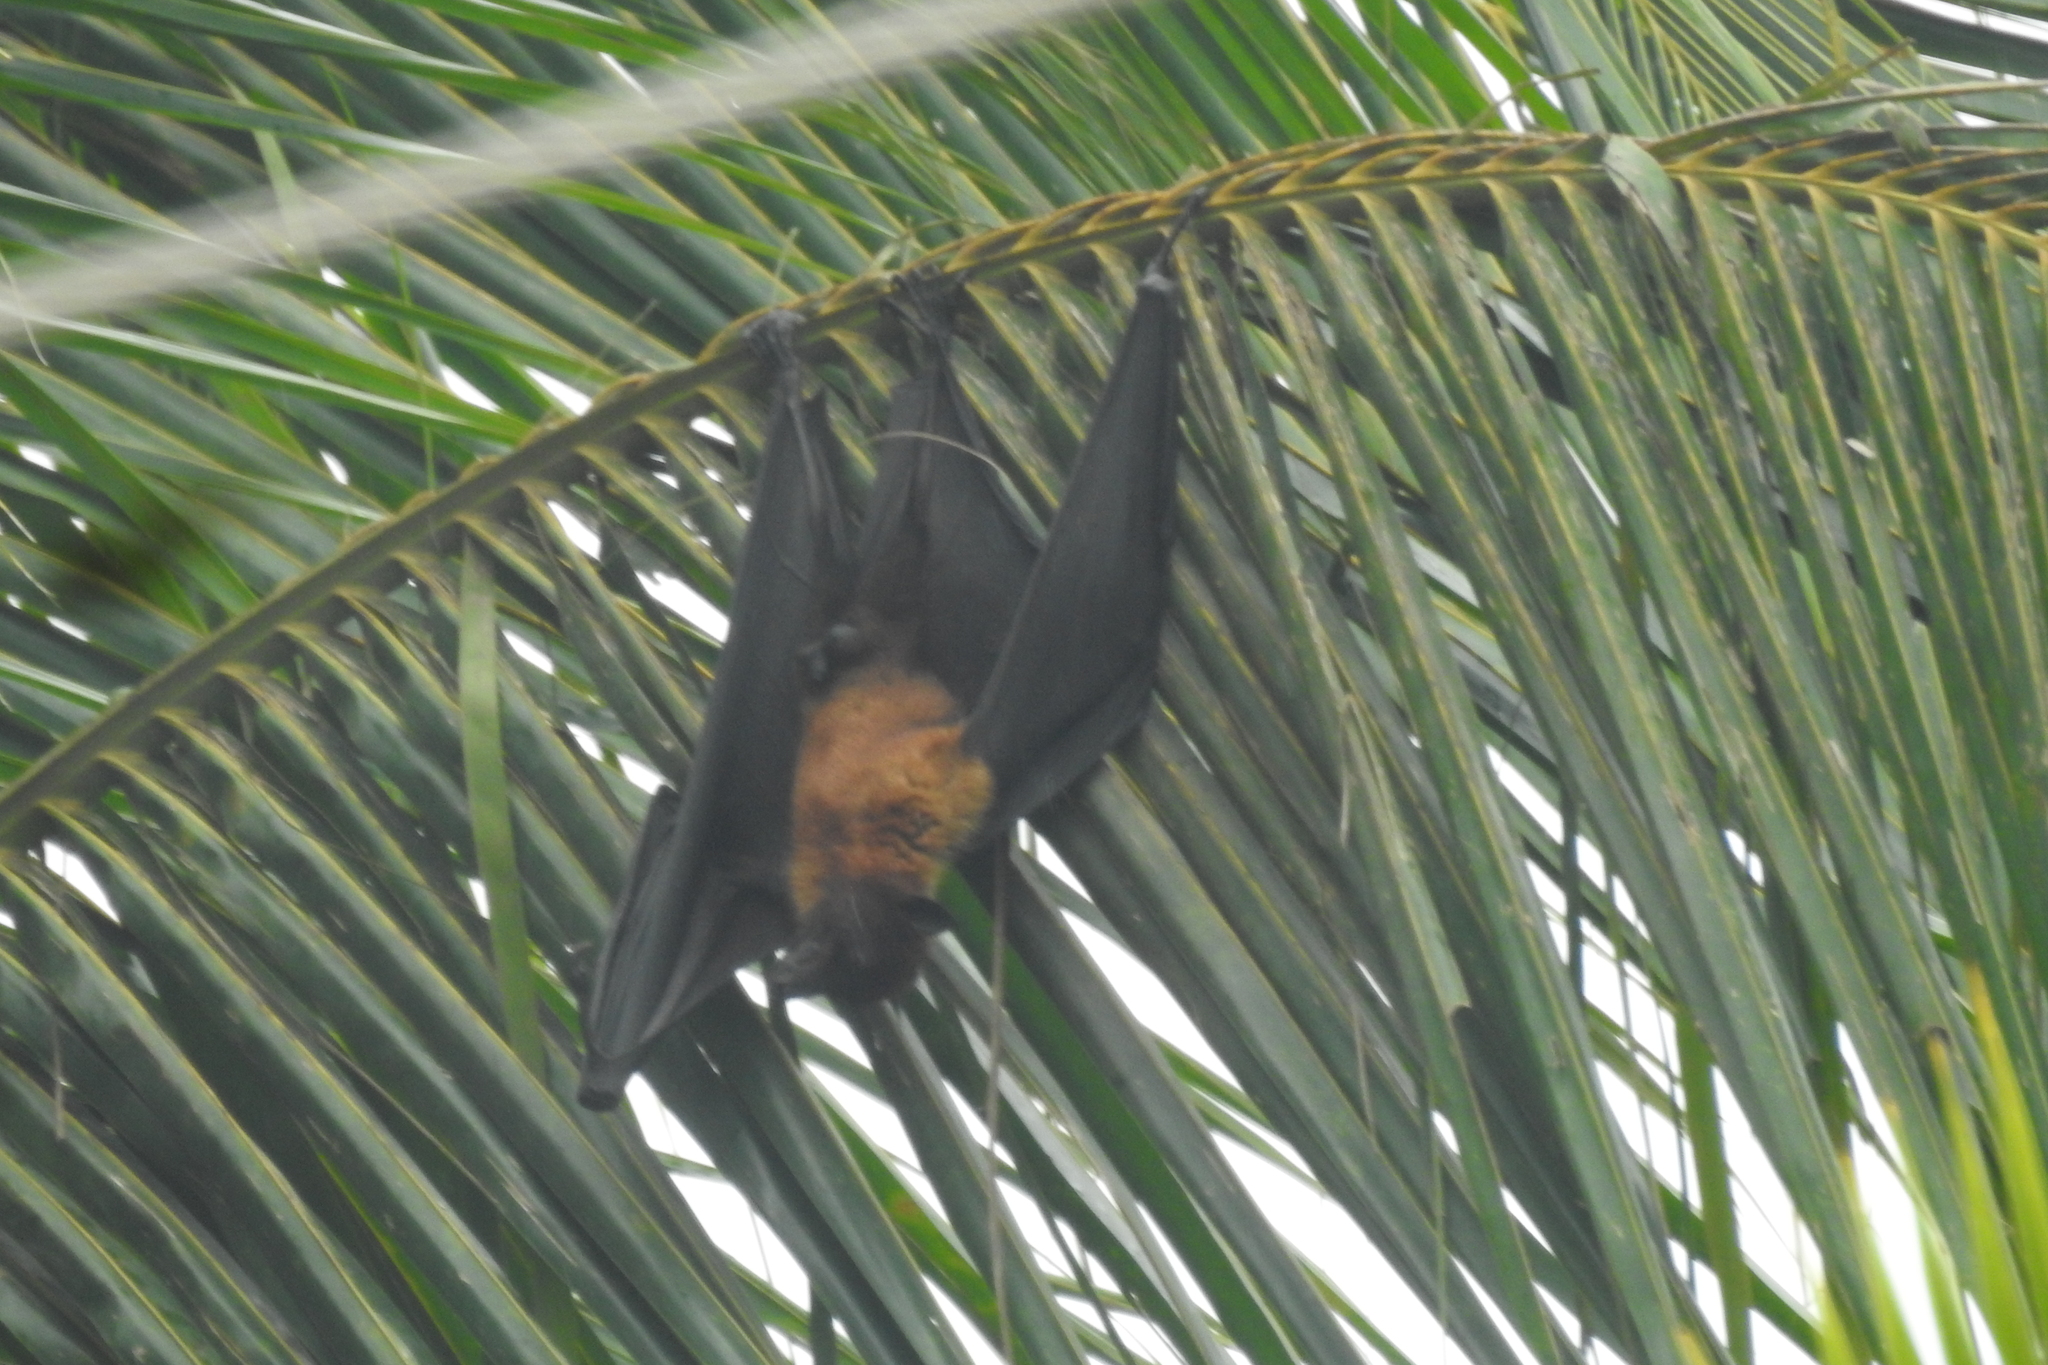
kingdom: Animalia
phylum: Chordata
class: Mammalia
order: Chiroptera
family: Pteropodidae
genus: Pteropus
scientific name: Pteropus vampyrus
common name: Large flying fox
